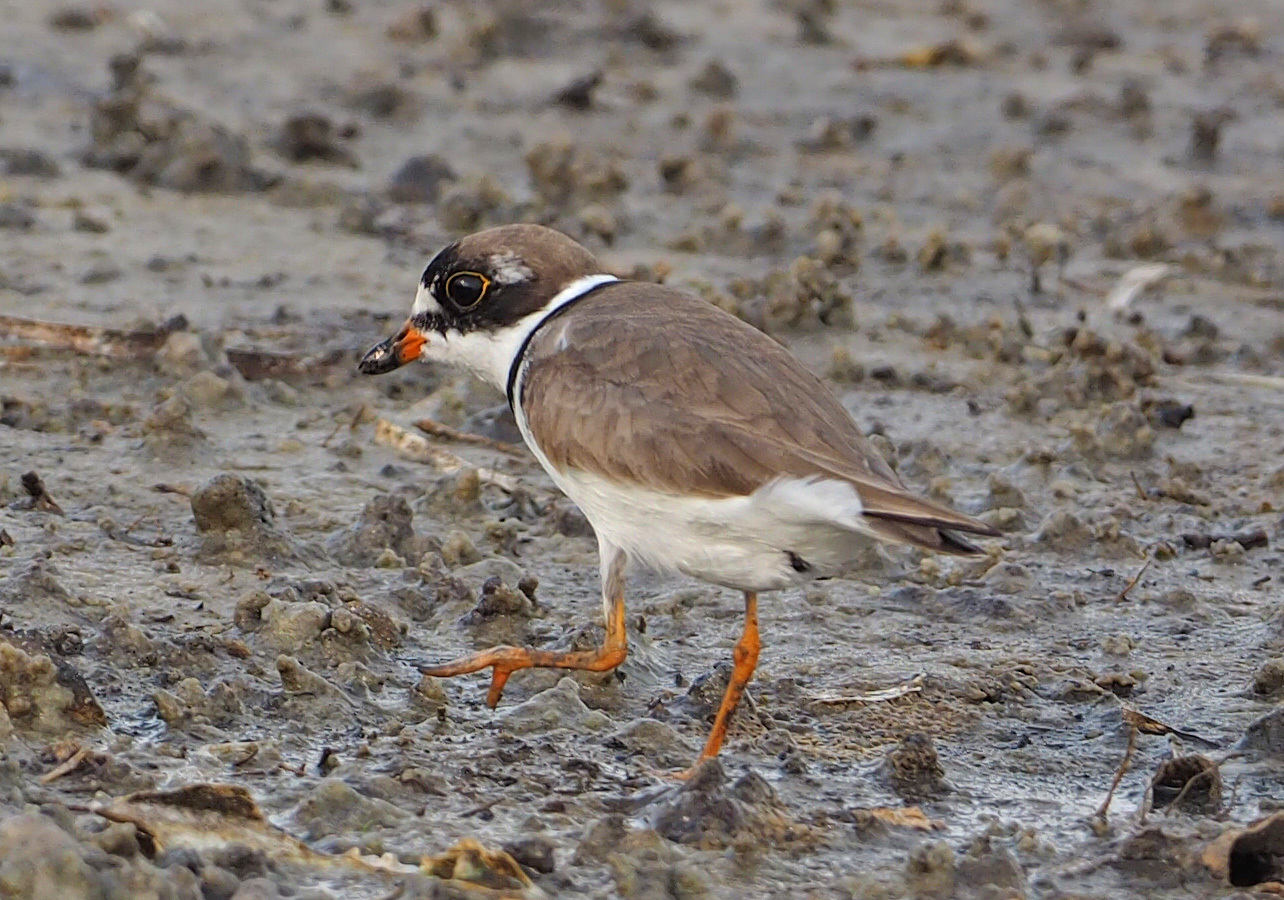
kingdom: Animalia
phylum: Chordata
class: Aves
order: Charadriiformes
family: Charadriidae
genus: Charadrius
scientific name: Charadrius semipalmatus
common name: Semipalmated plover
